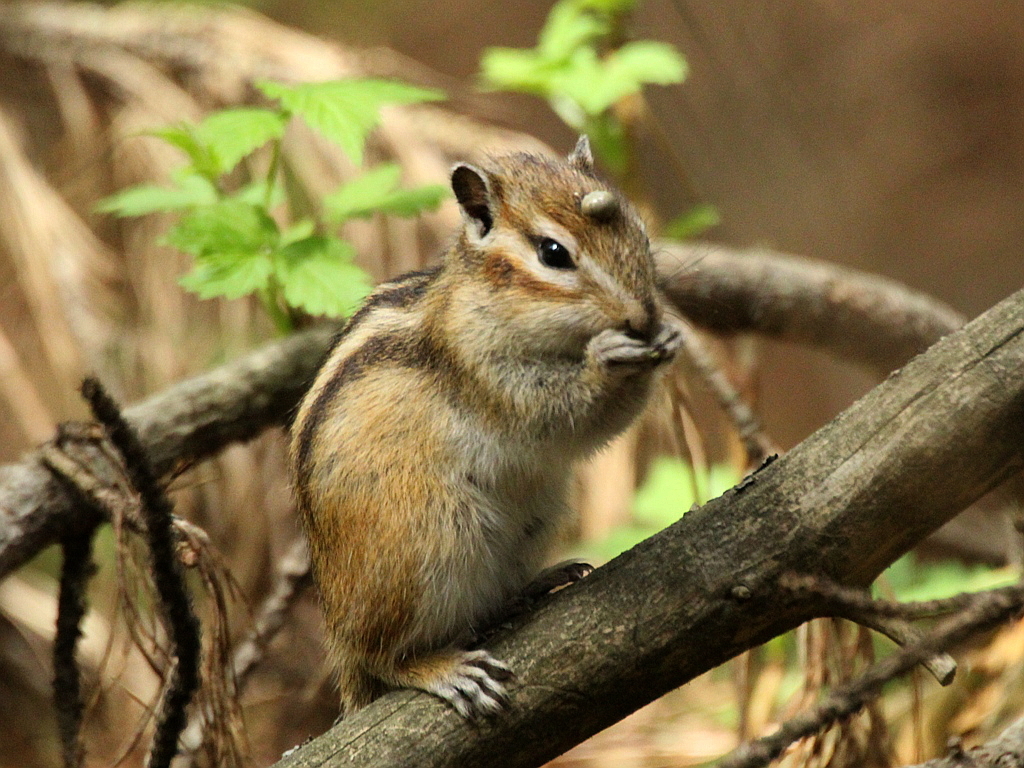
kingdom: Animalia
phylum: Chordata
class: Mammalia
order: Rodentia
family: Sciuridae
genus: Tamias
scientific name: Tamias sibiricus
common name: Siberian chipmunk
